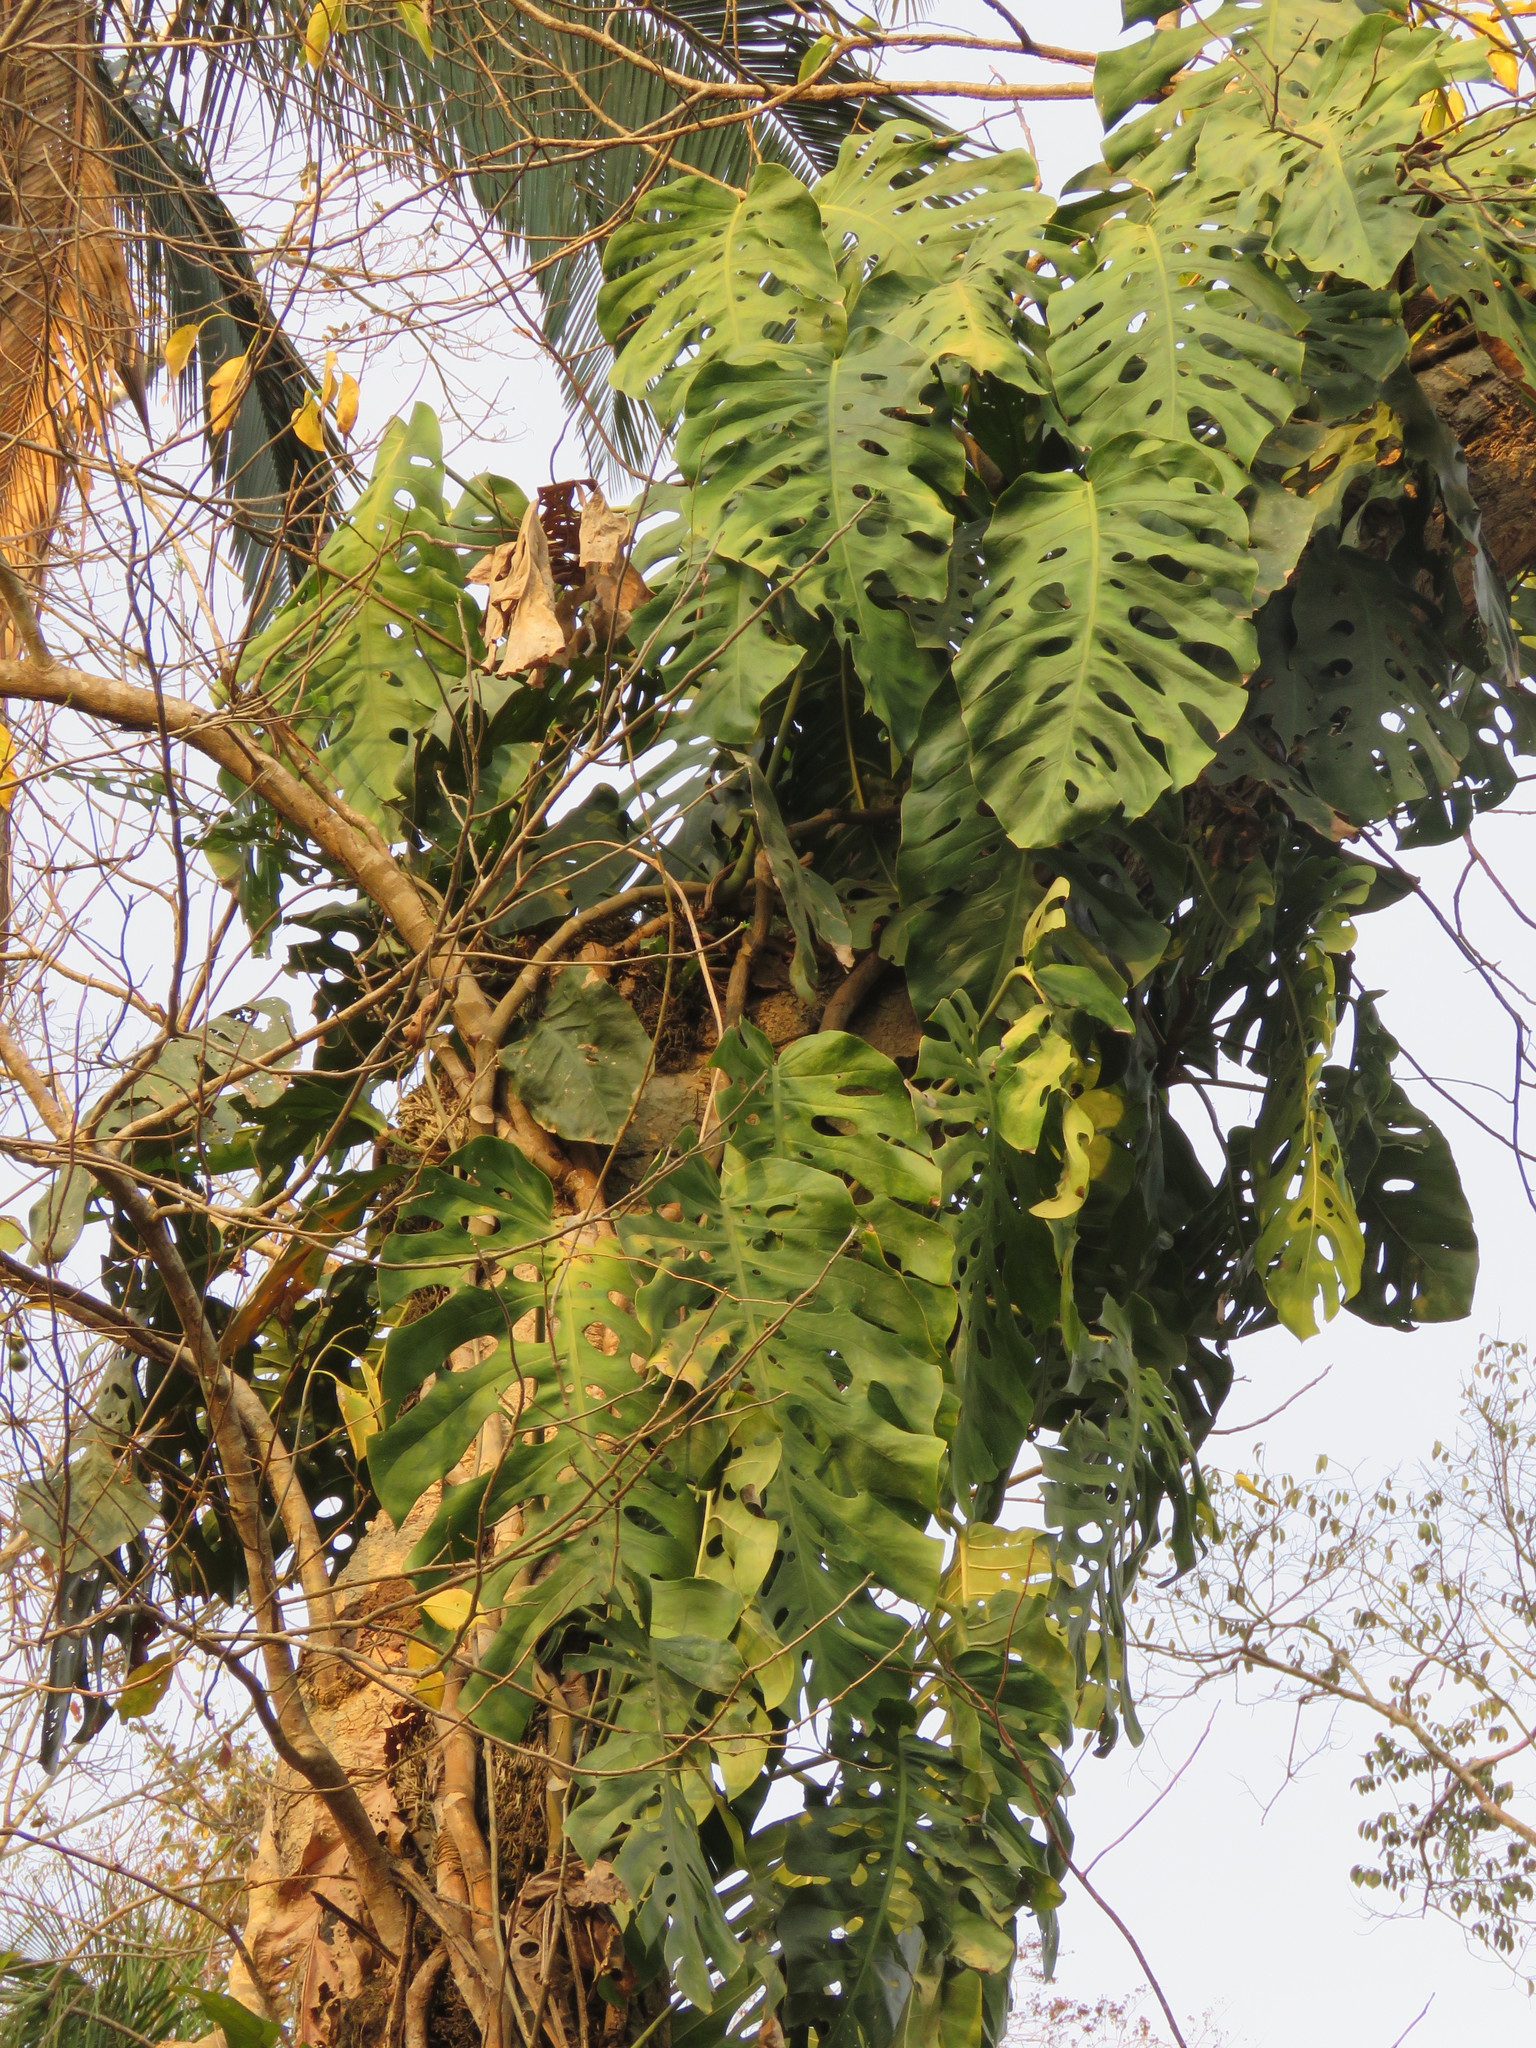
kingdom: Plantae
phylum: Tracheophyta
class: Liliopsida
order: Alismatales
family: Araceae
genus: Monstera
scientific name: Monstera dubia
